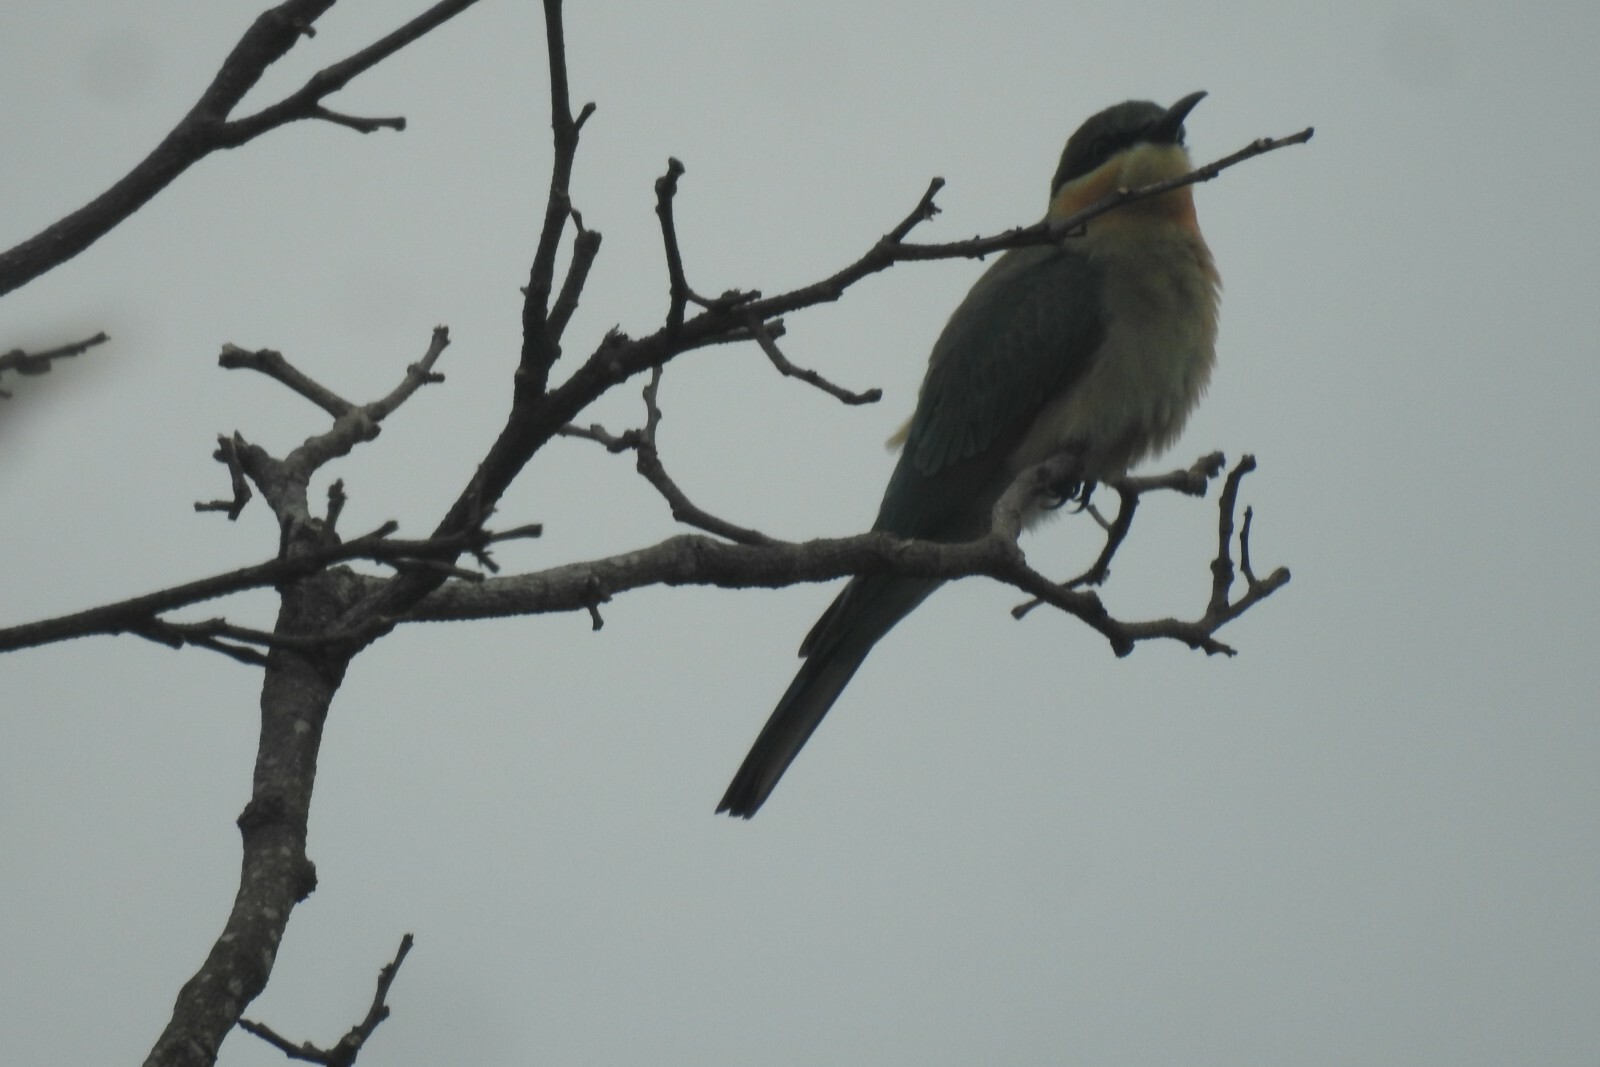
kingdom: Animalia
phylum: Chordata
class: Aves
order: Coraciiformes
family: Meropidae
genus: Merops
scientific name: Merops philippinus
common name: Blue-tailed bee-eater
